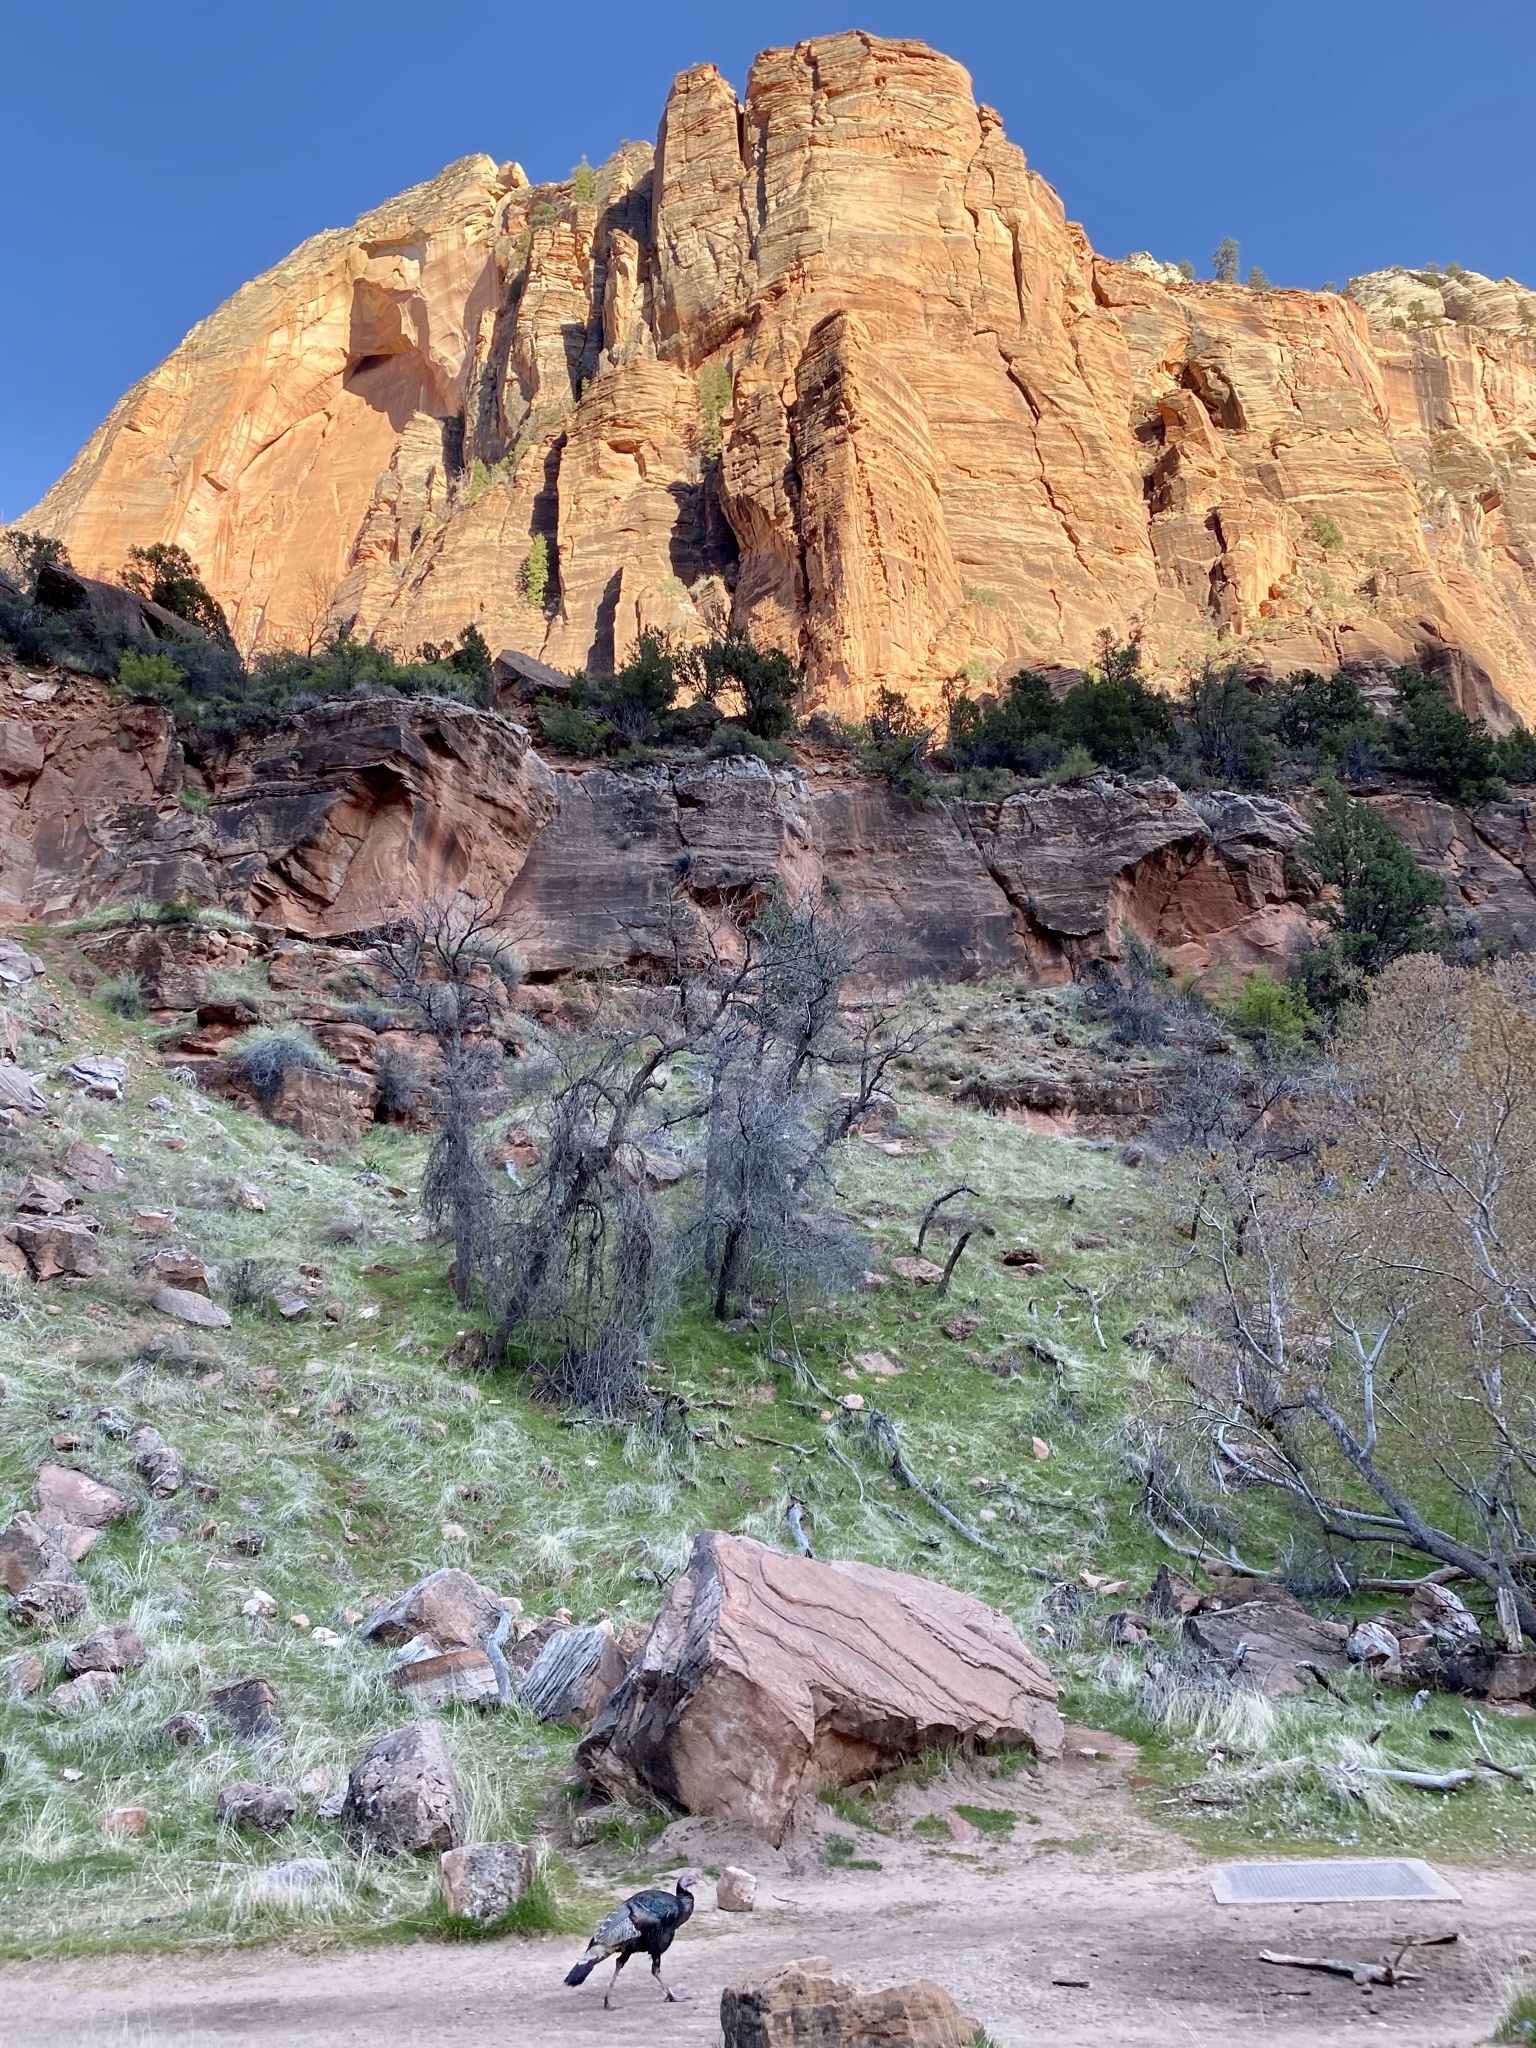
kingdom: Animalia
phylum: Chordata
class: Aves
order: Galliformes
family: Phasianidae
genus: Meleagris
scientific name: Meleagris gallopavo
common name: Wild turkey
